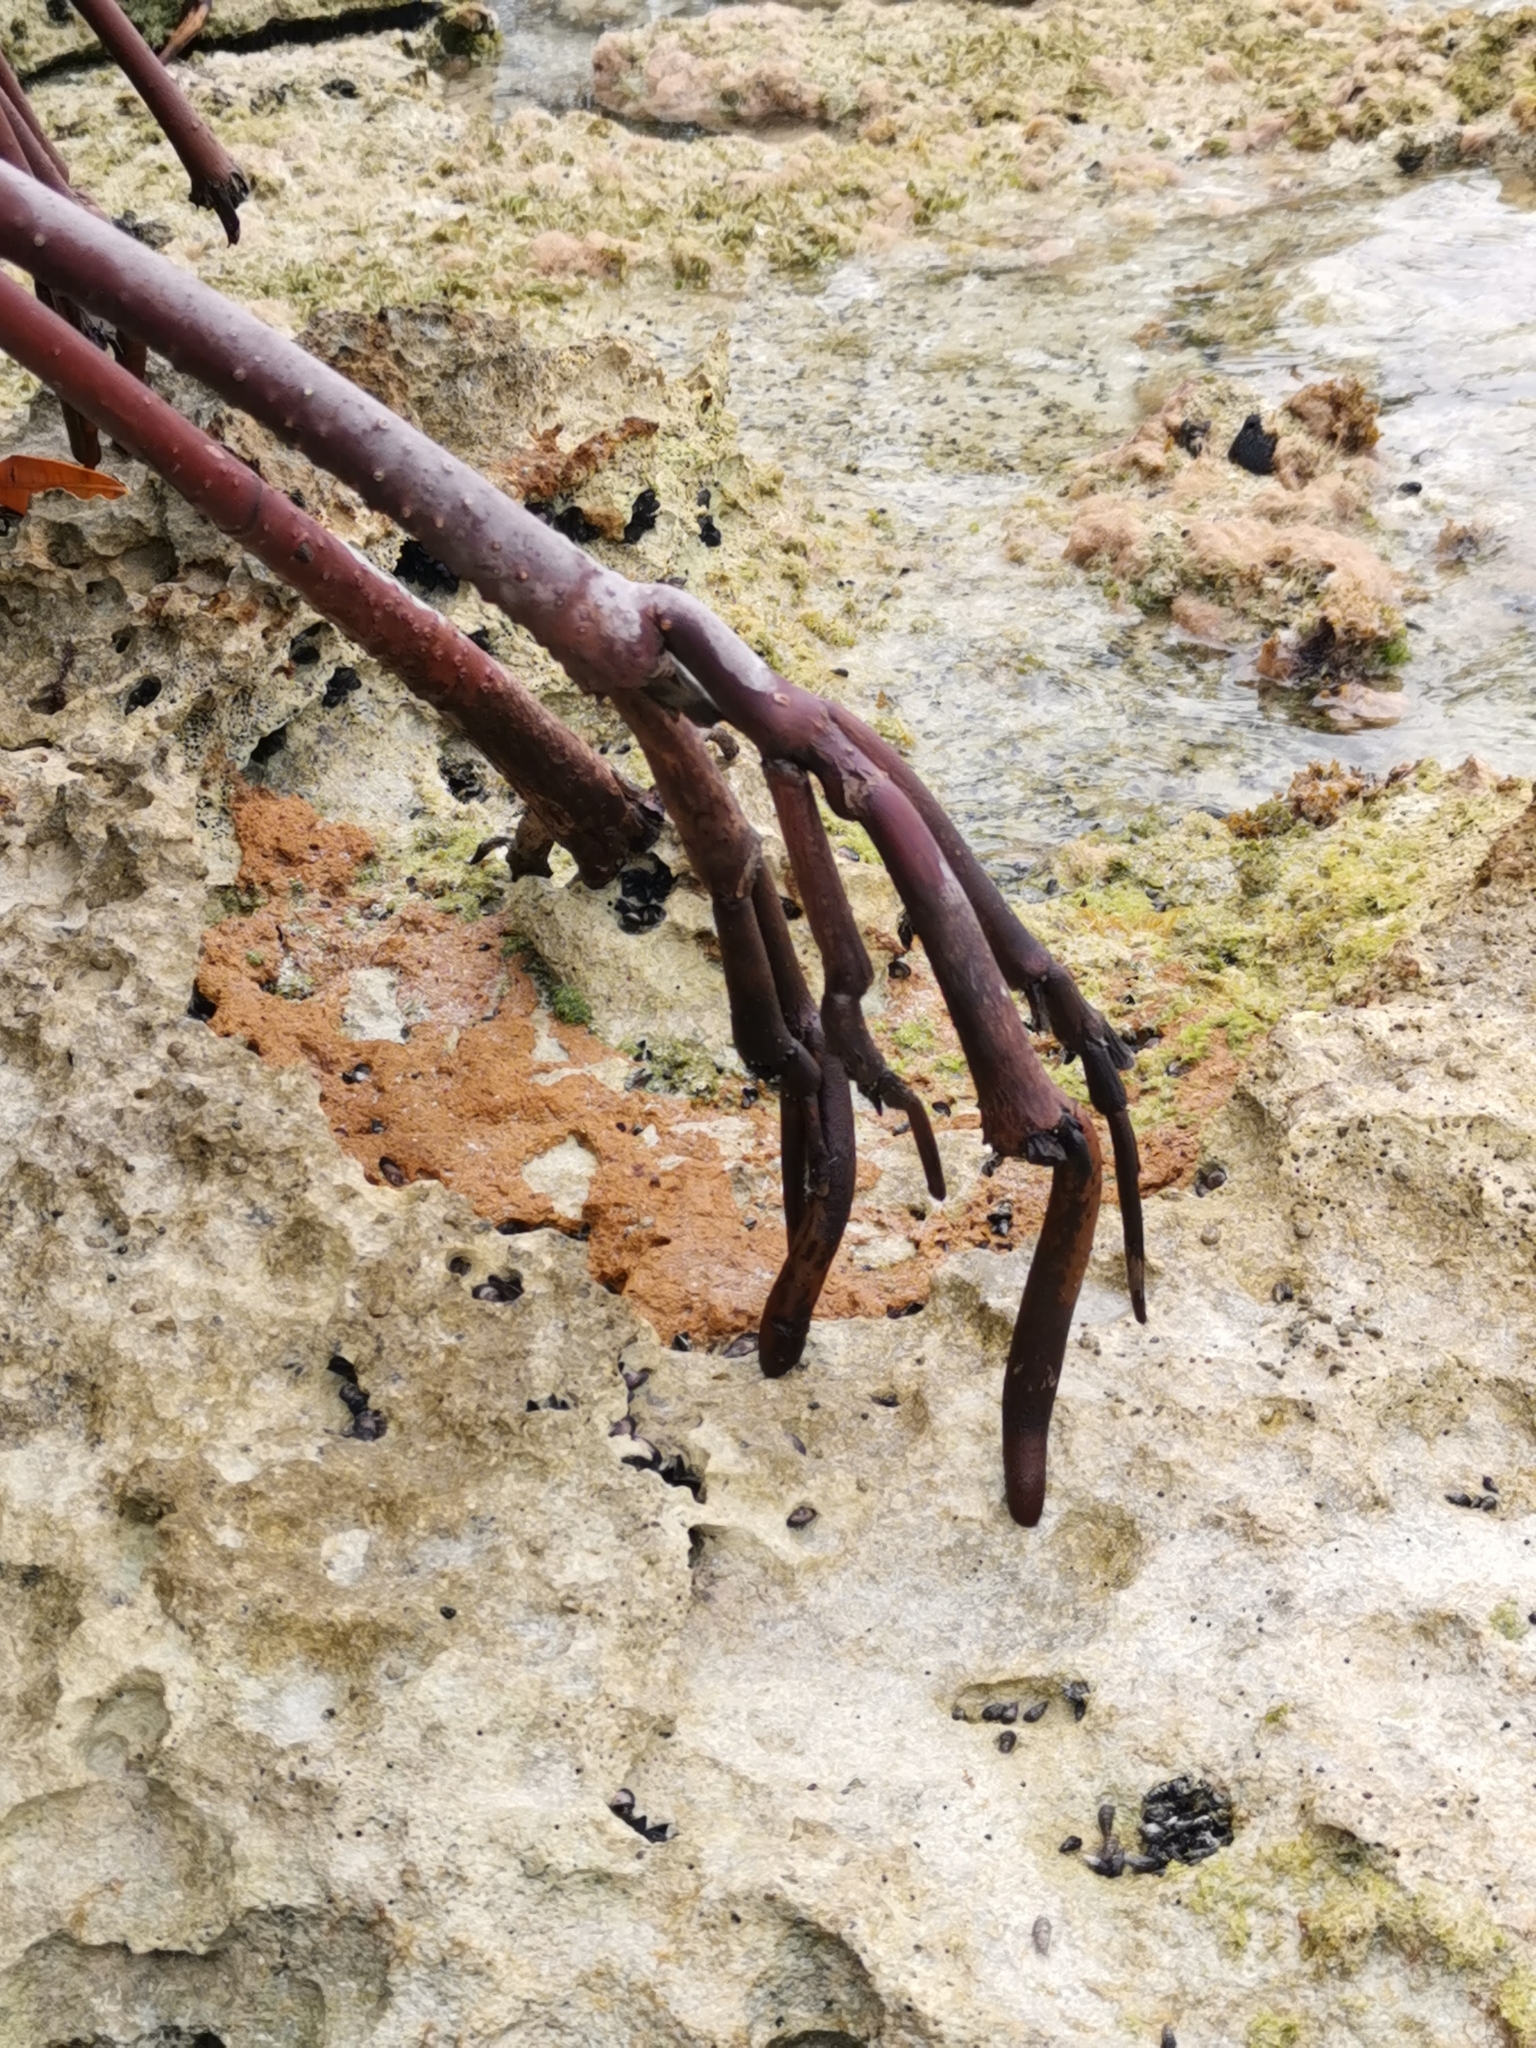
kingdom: Plantae
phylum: Tracheophyta
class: Magnoliopsida
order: Malpighiales
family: Rhizophoraceae
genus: Rhizophora
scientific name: Rhizophora mangle
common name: Red mangrove
